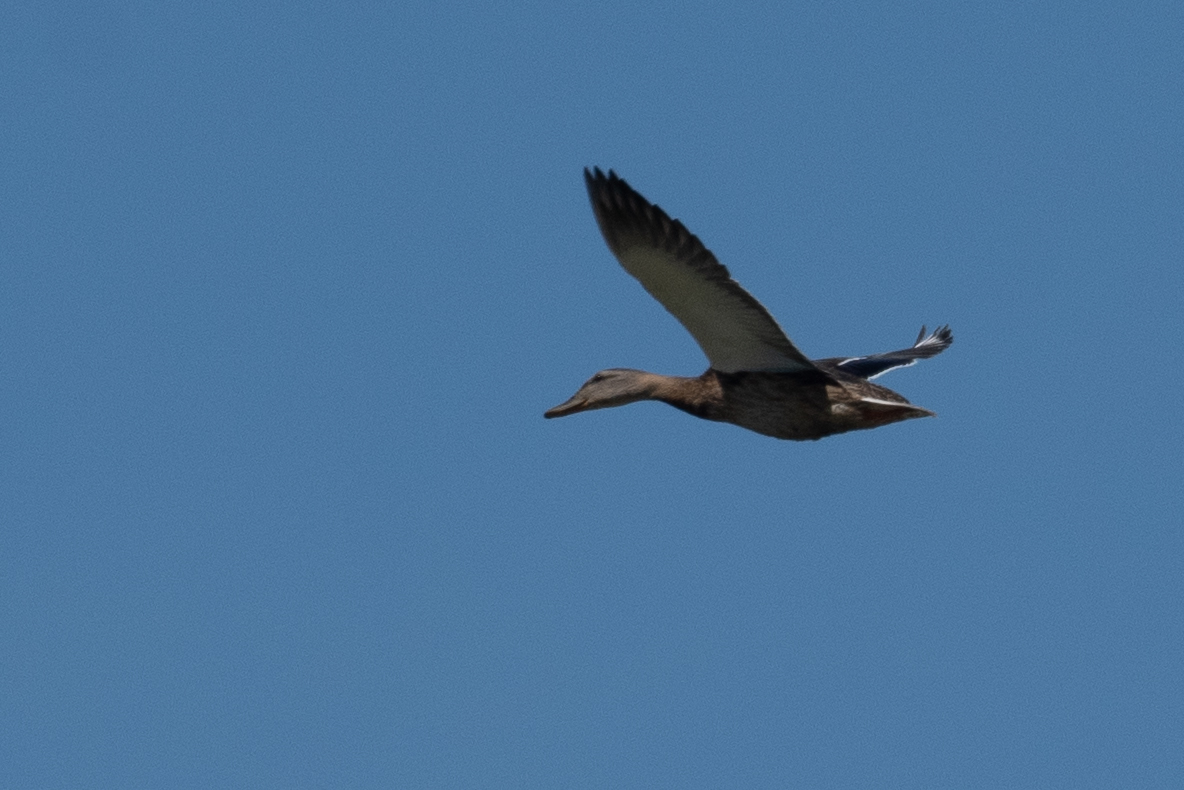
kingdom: Animalia
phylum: Chordata
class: Aves
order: Anseriformes
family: Anatidae
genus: Anas
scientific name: Anas platyrhynchos
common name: Mallard
